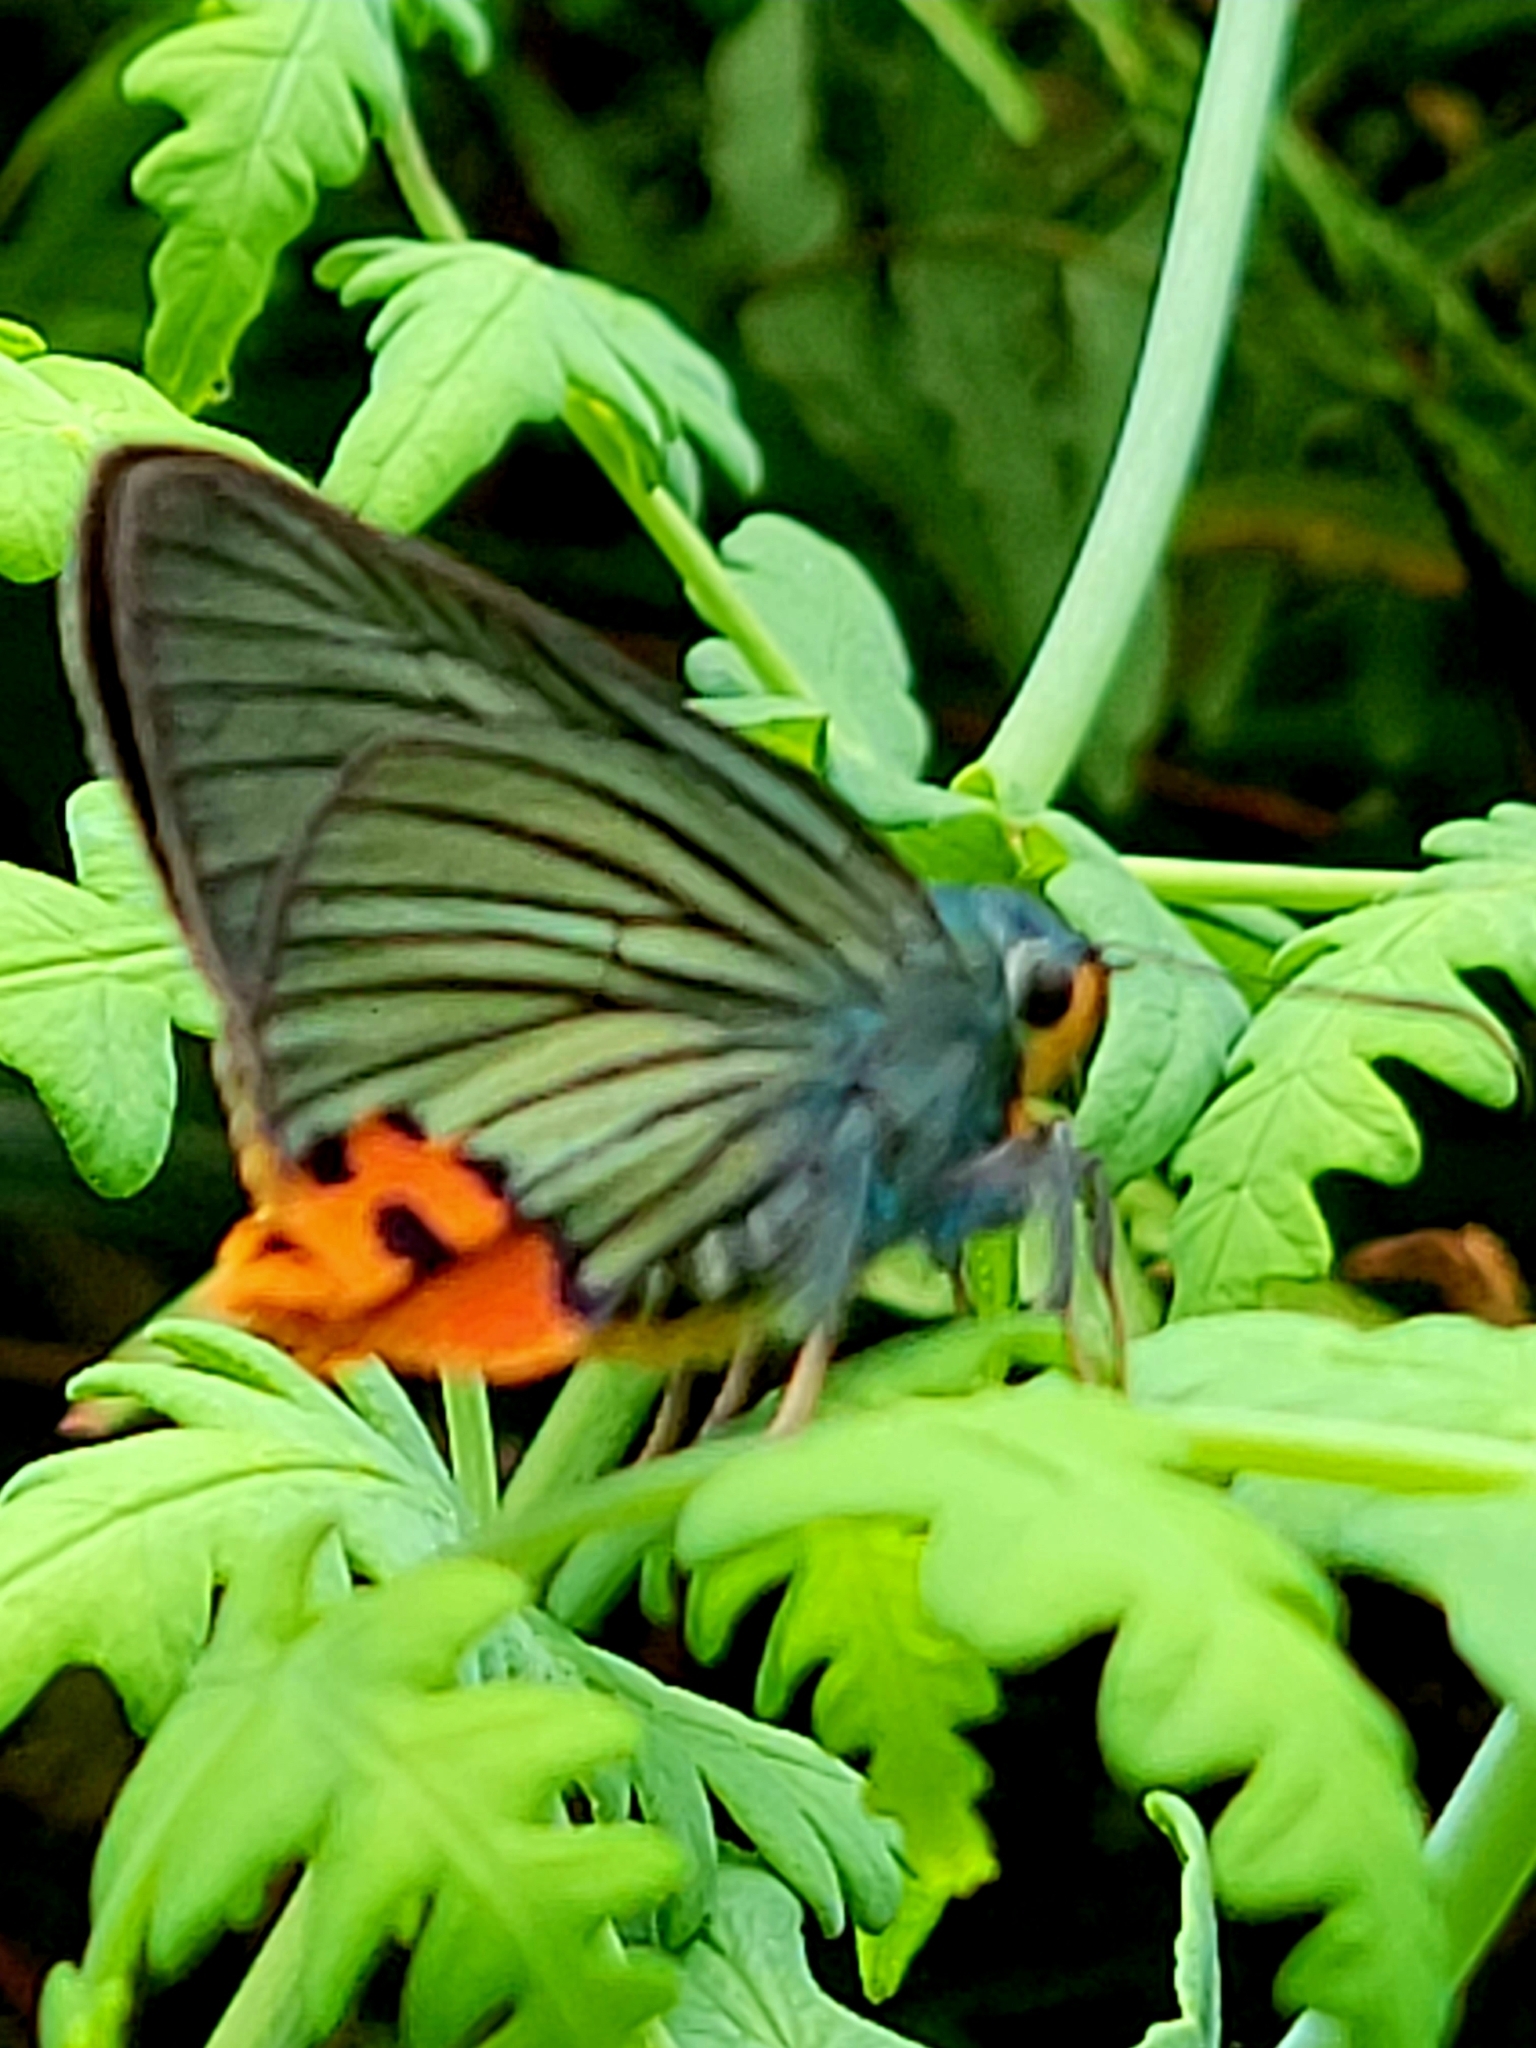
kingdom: Animalia
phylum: Arthropoda
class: Insecta
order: Lepidoptera
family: Hesperiidae
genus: Choaspes
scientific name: Choaspes benjaminii
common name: Indian awlking
